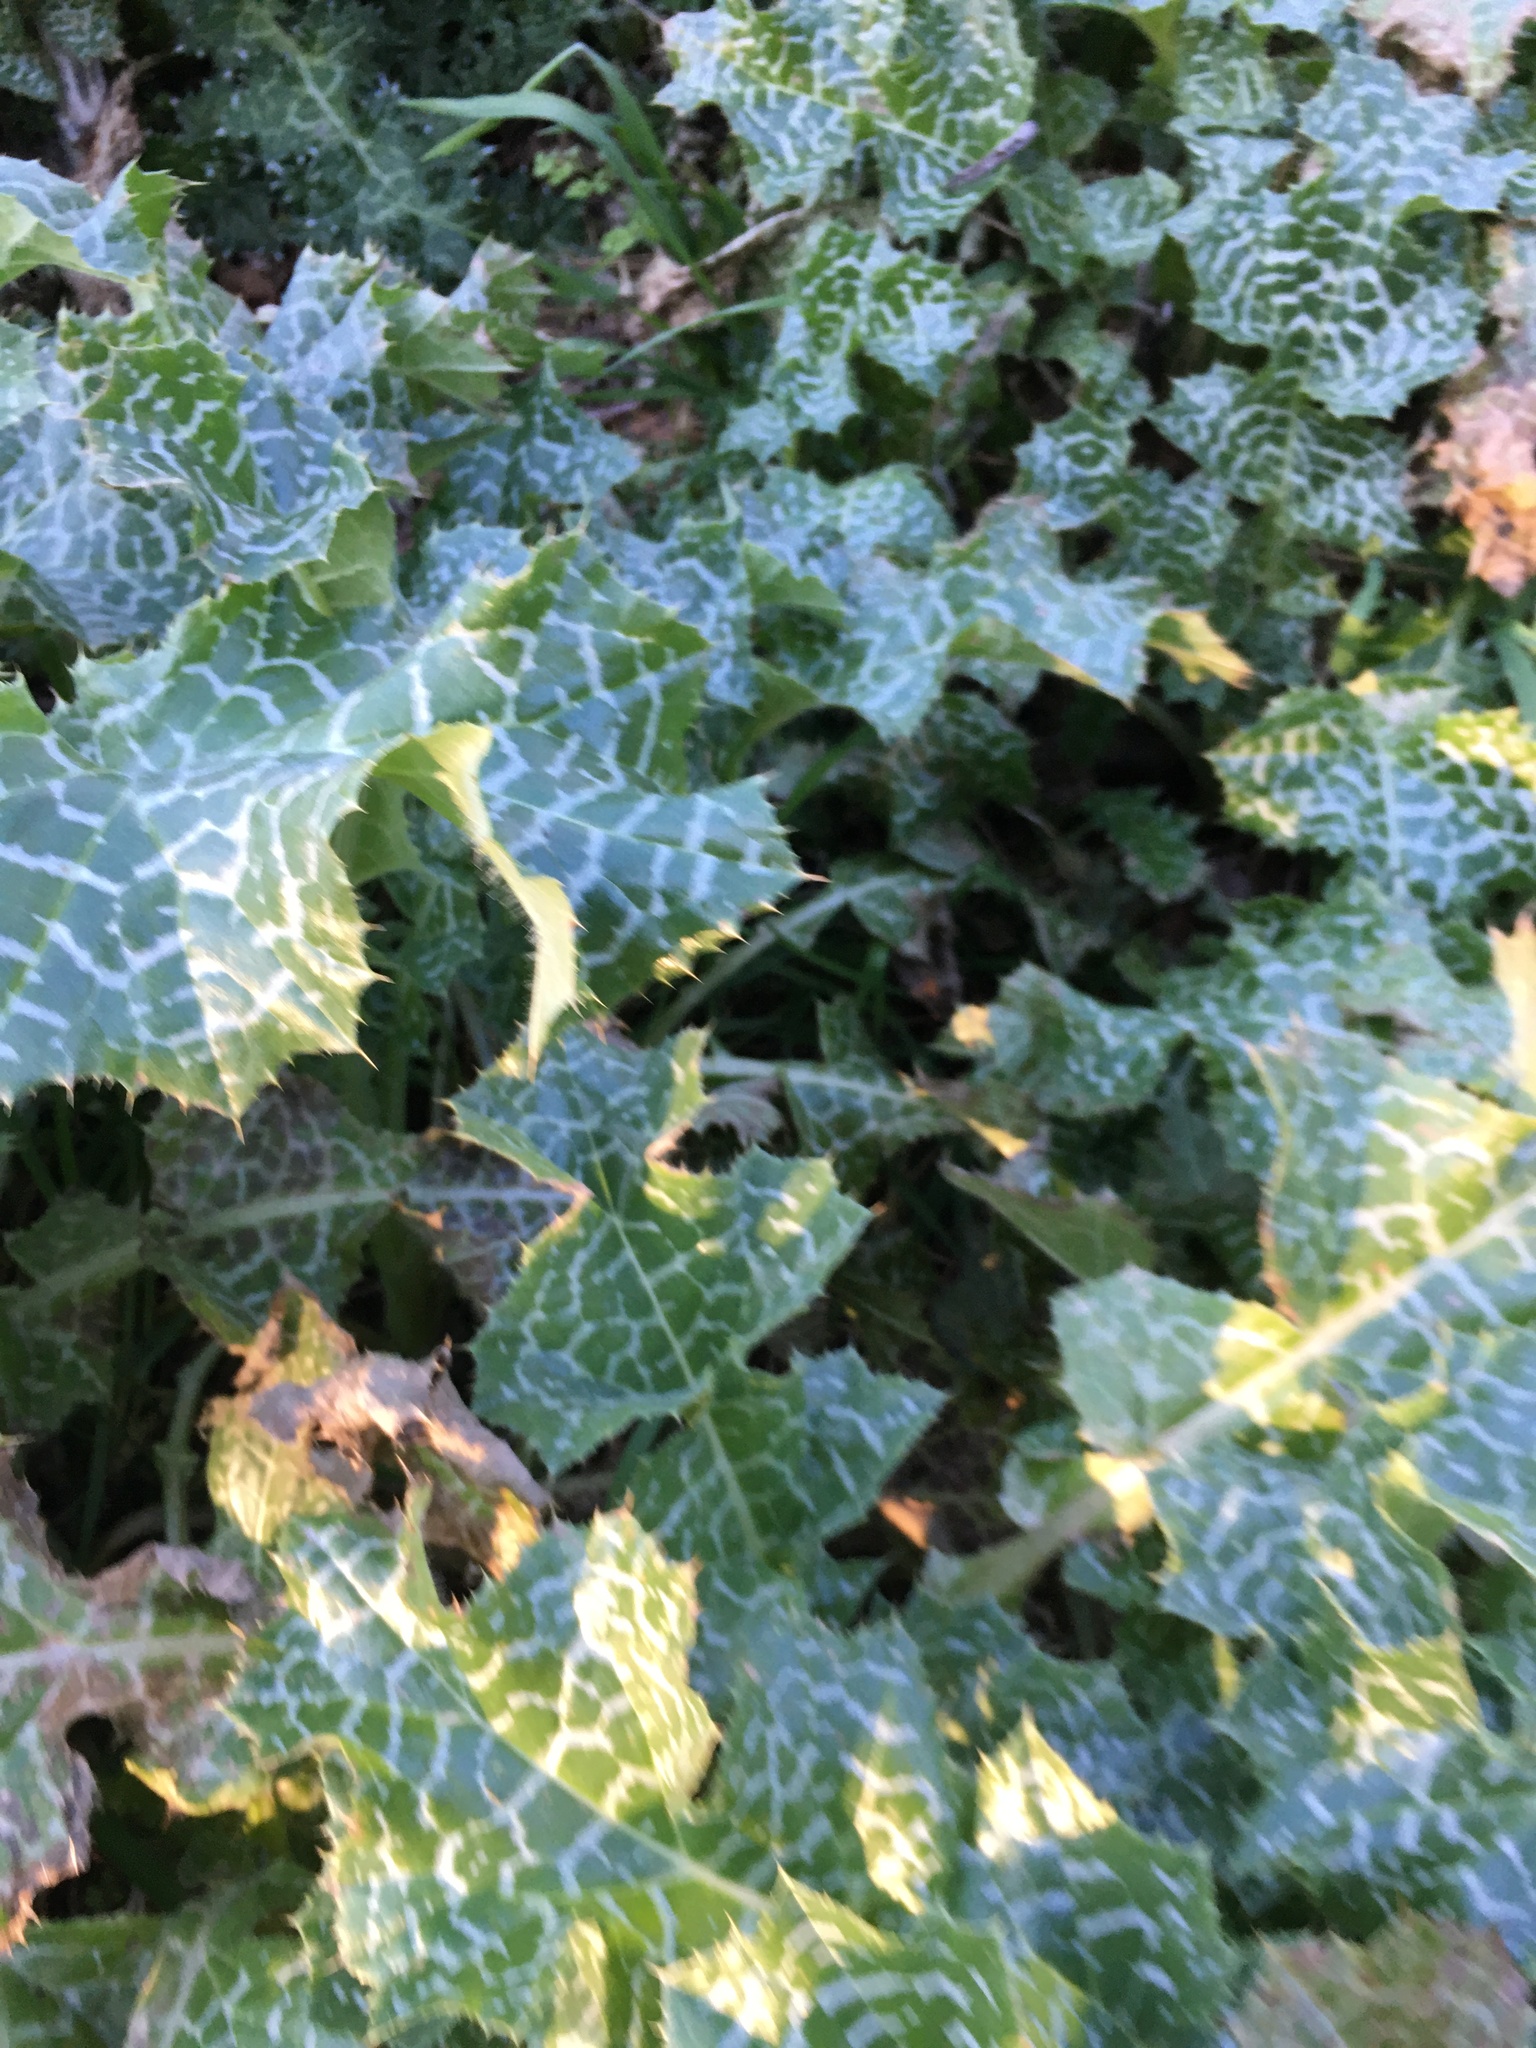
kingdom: Plantae
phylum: Tracheophyta
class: Magnoliopsida
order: Asterales
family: Asteraceae
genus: Silybum
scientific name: Silybum marianum
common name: Milk thistle
